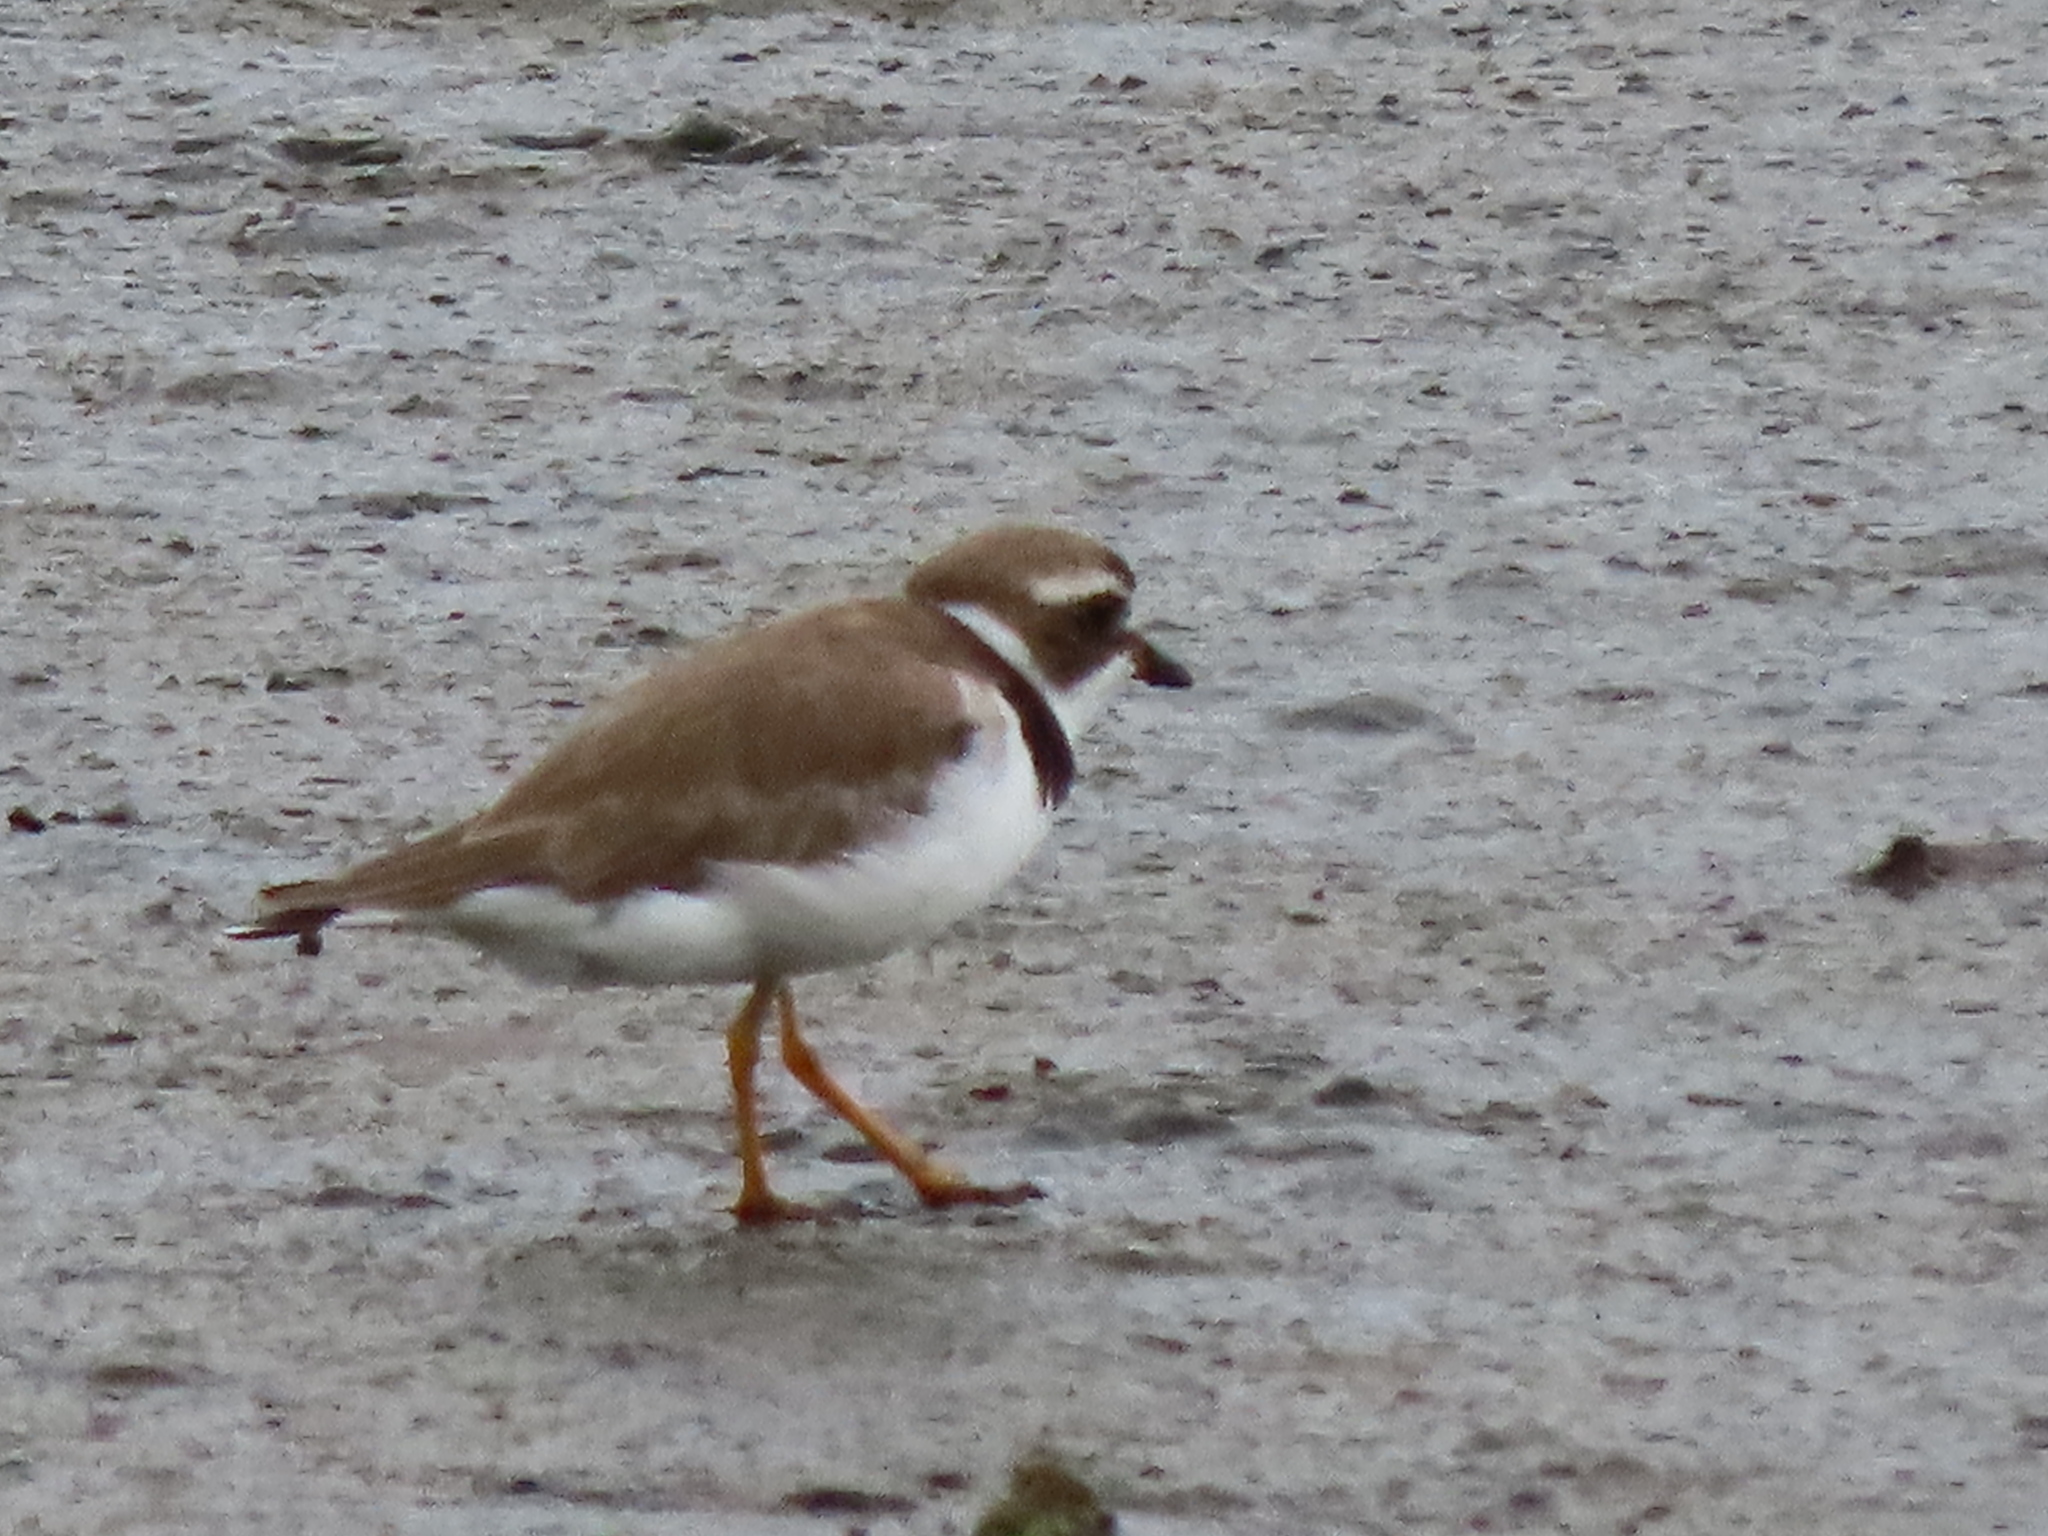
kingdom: Animalia
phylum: Chordata
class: Aves
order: Charadriiformes
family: Charadriidae
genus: Charadrius
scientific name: Charadrius semipalmatus
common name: Semipalmated plover
